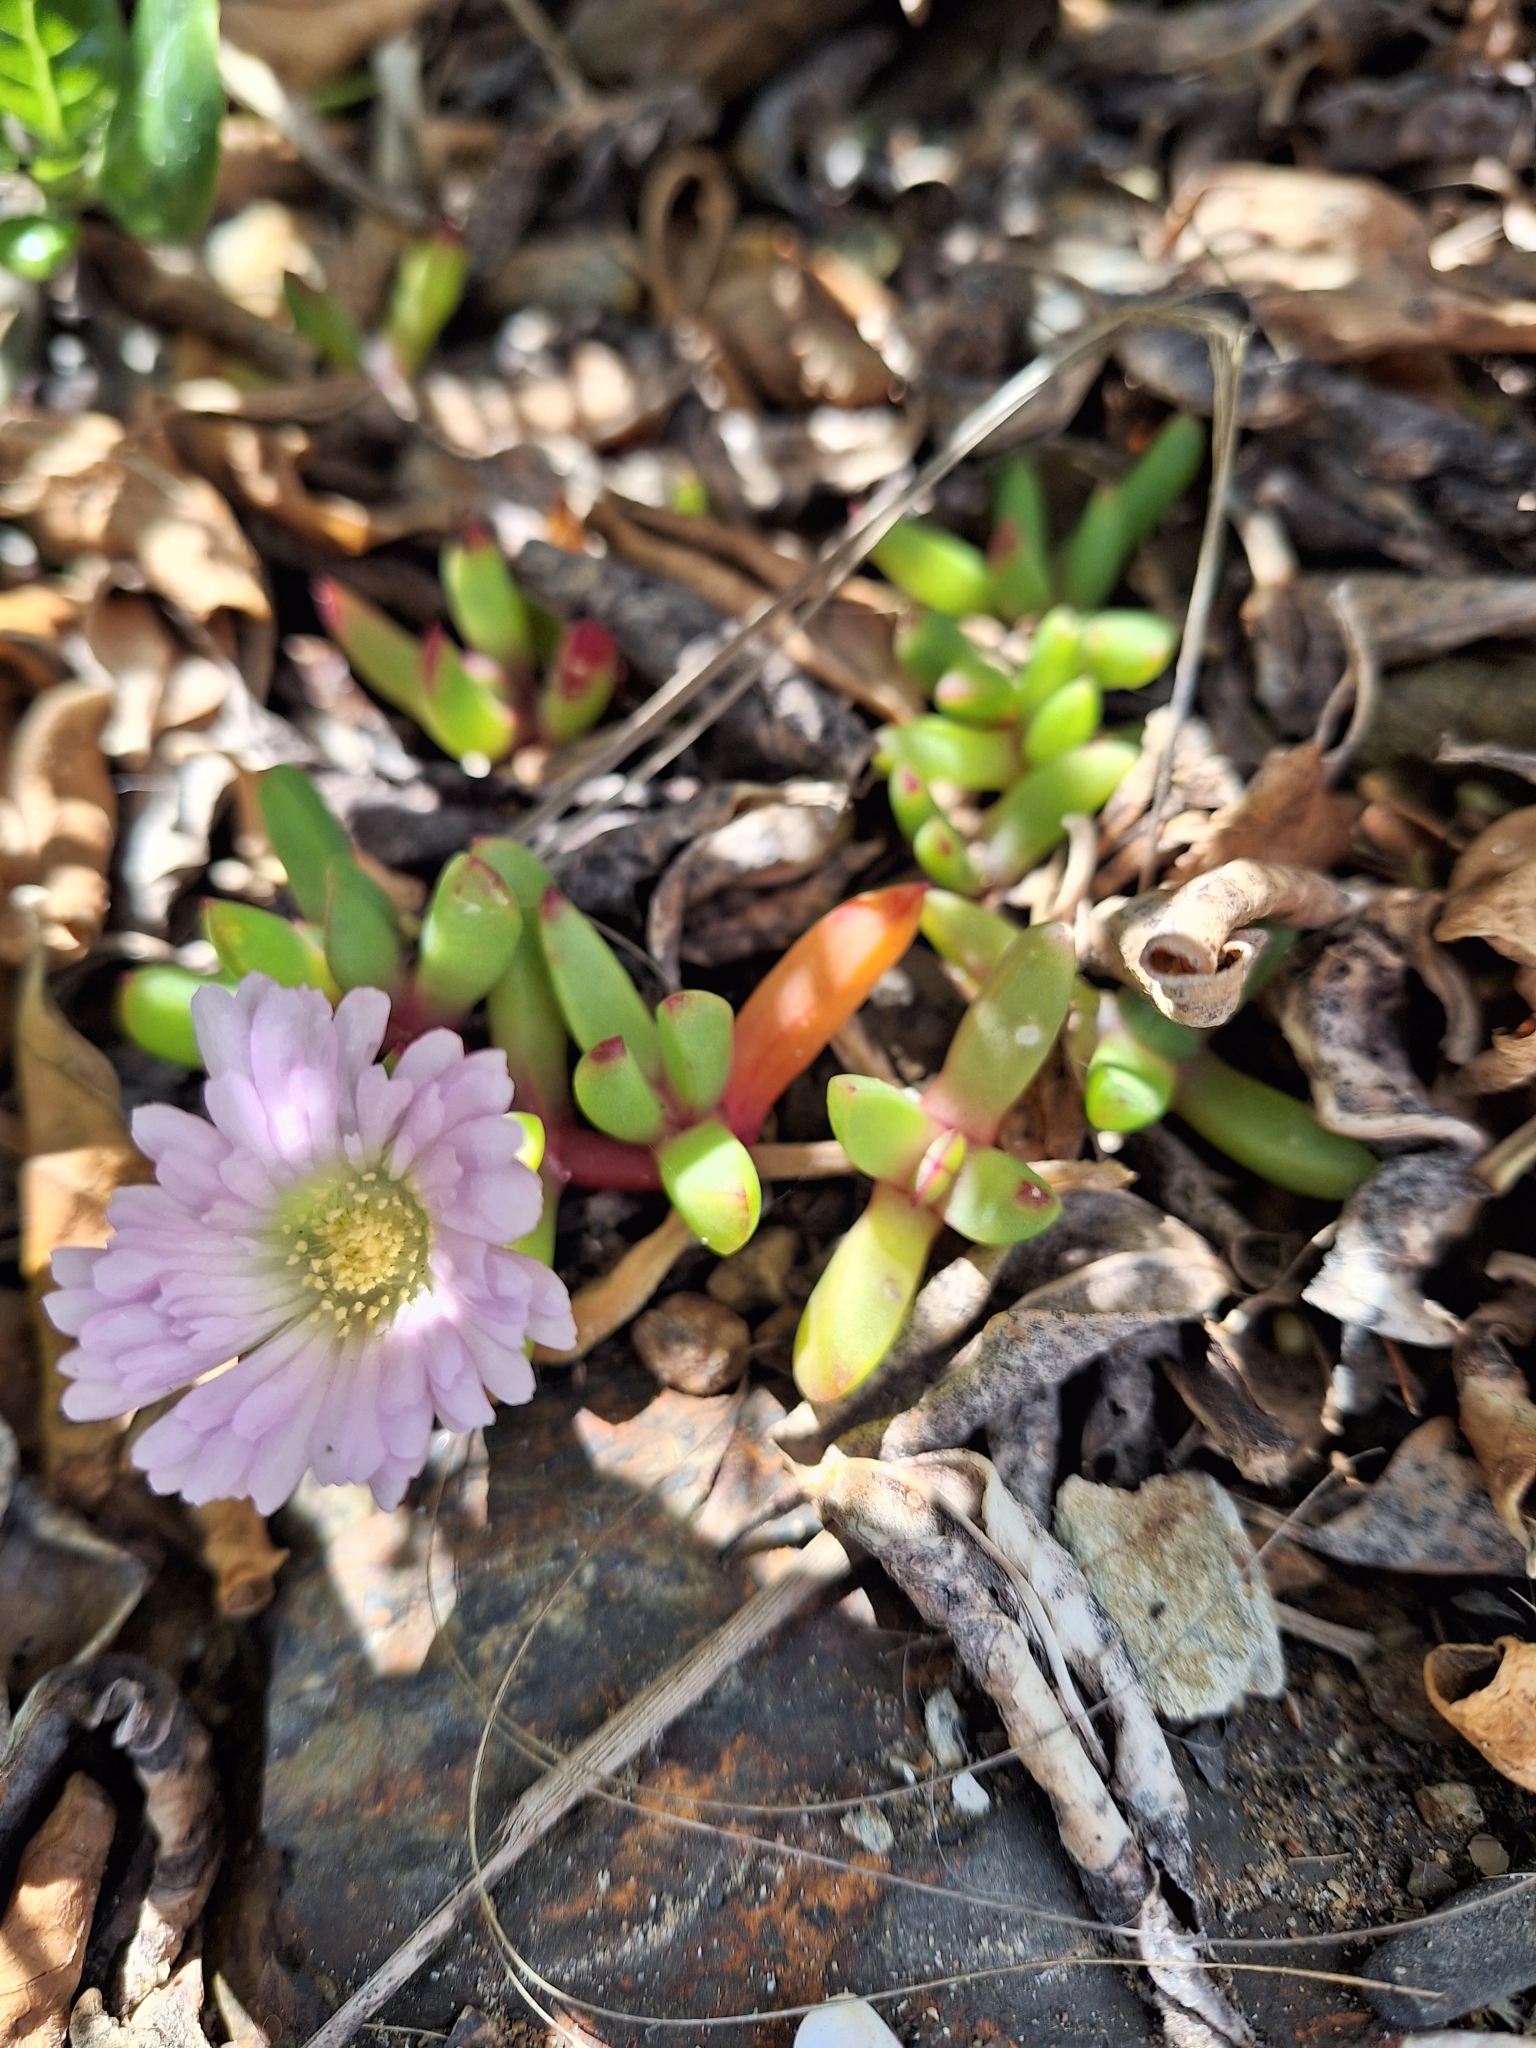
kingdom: Plantae
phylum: Tracheophyta
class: Magnoliopsida
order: Caryophyllales
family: Aizoaceae
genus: Disphyma
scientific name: Disphyma australe
